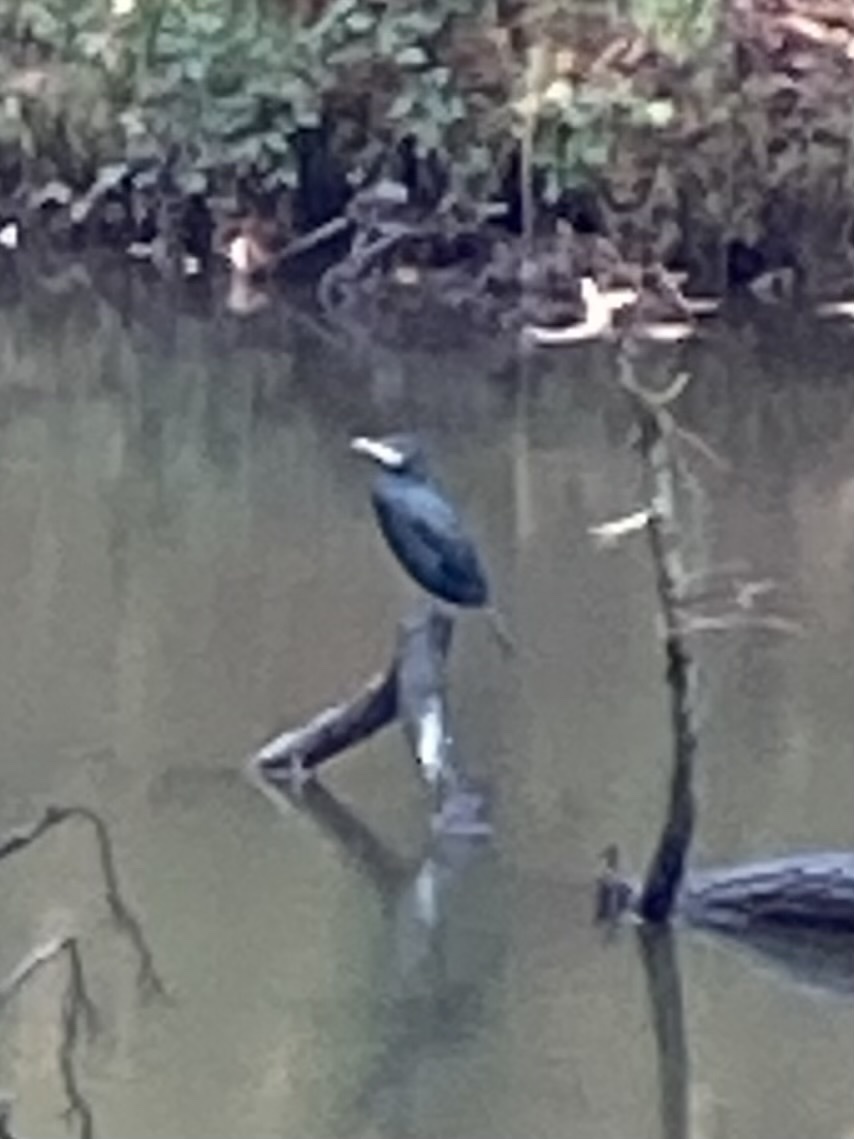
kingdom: Animalia
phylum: Chordata
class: Aves
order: Suliformes
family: Phalacrocoracidae
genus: Phalacrocorax
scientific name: Phalacrocorax carbo
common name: Great cormorant
